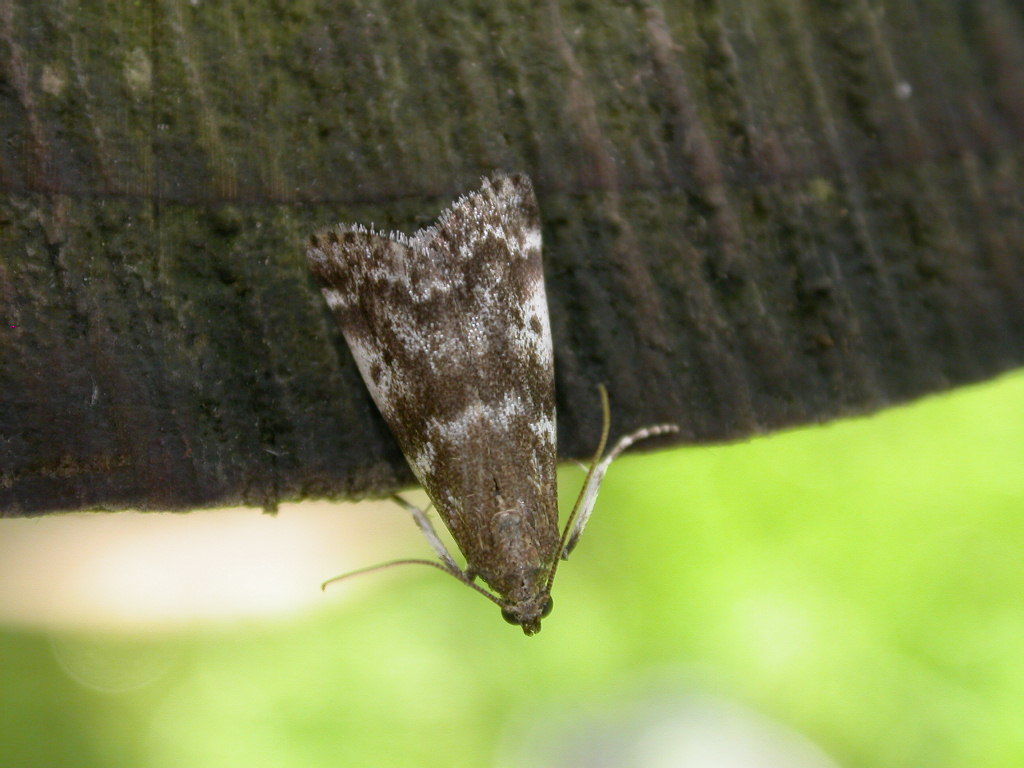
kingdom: Animalia
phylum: Arthropoda
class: Insecta
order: Lepidoptera
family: Pyralidae
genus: Assara
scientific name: Assara terebrella
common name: Dark spruce knot-horn
